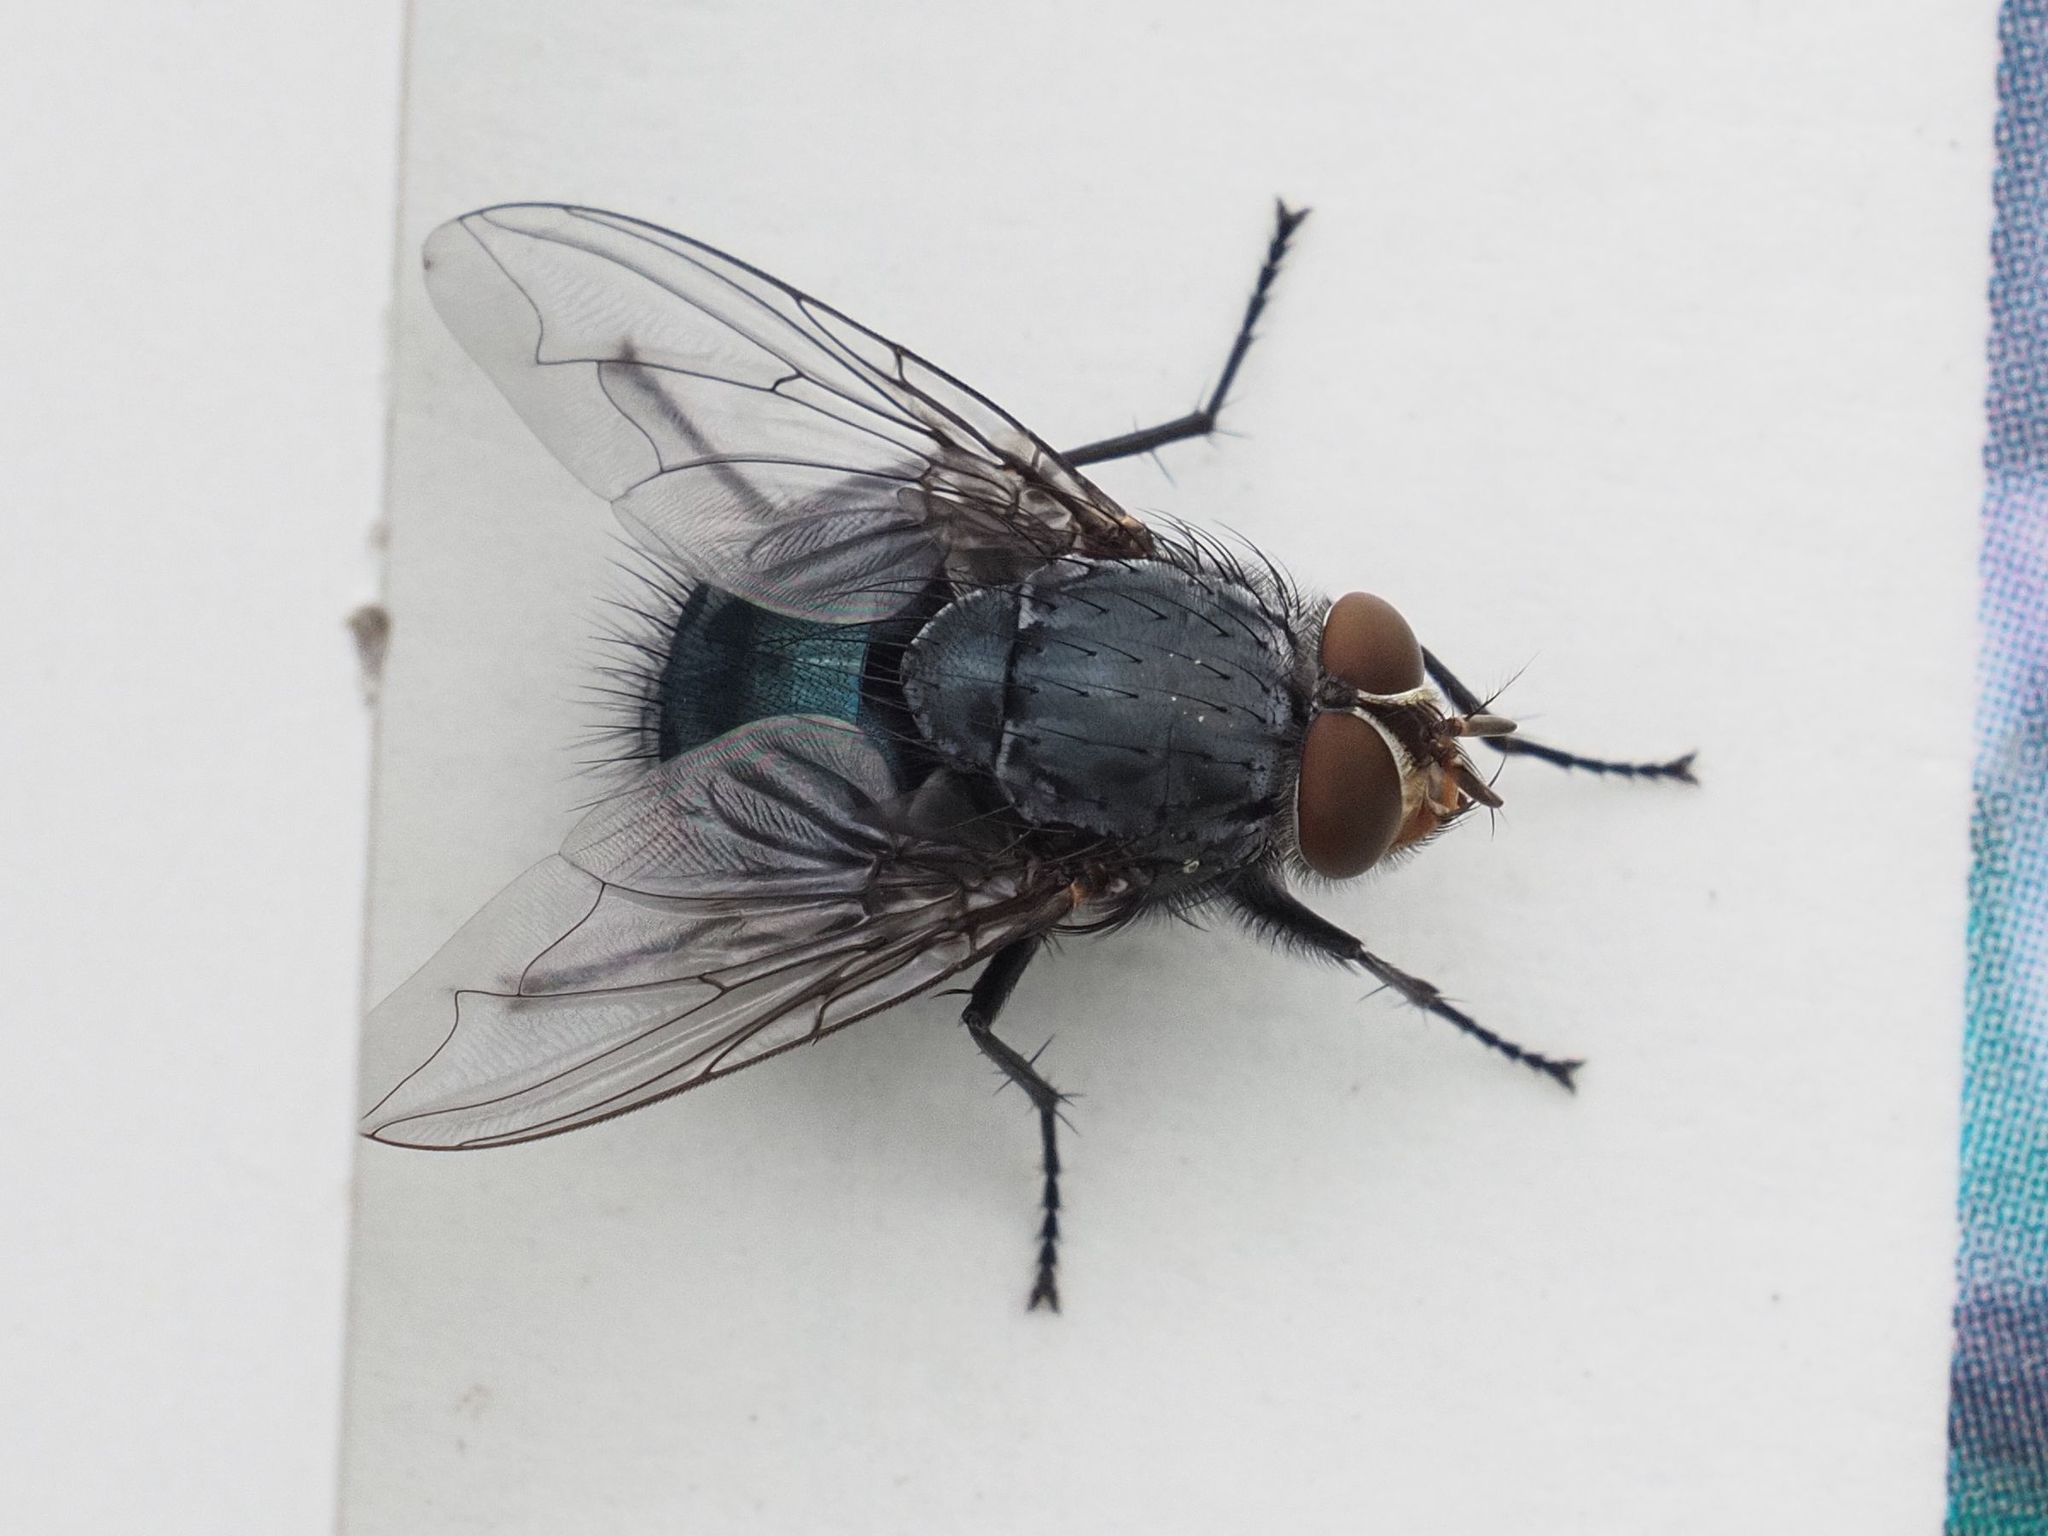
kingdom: Animalia
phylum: Arthropoda
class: Insecta
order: Diptera
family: Calliphoridae
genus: Calliphora
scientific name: Calliphora vicina
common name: Common blow flie
